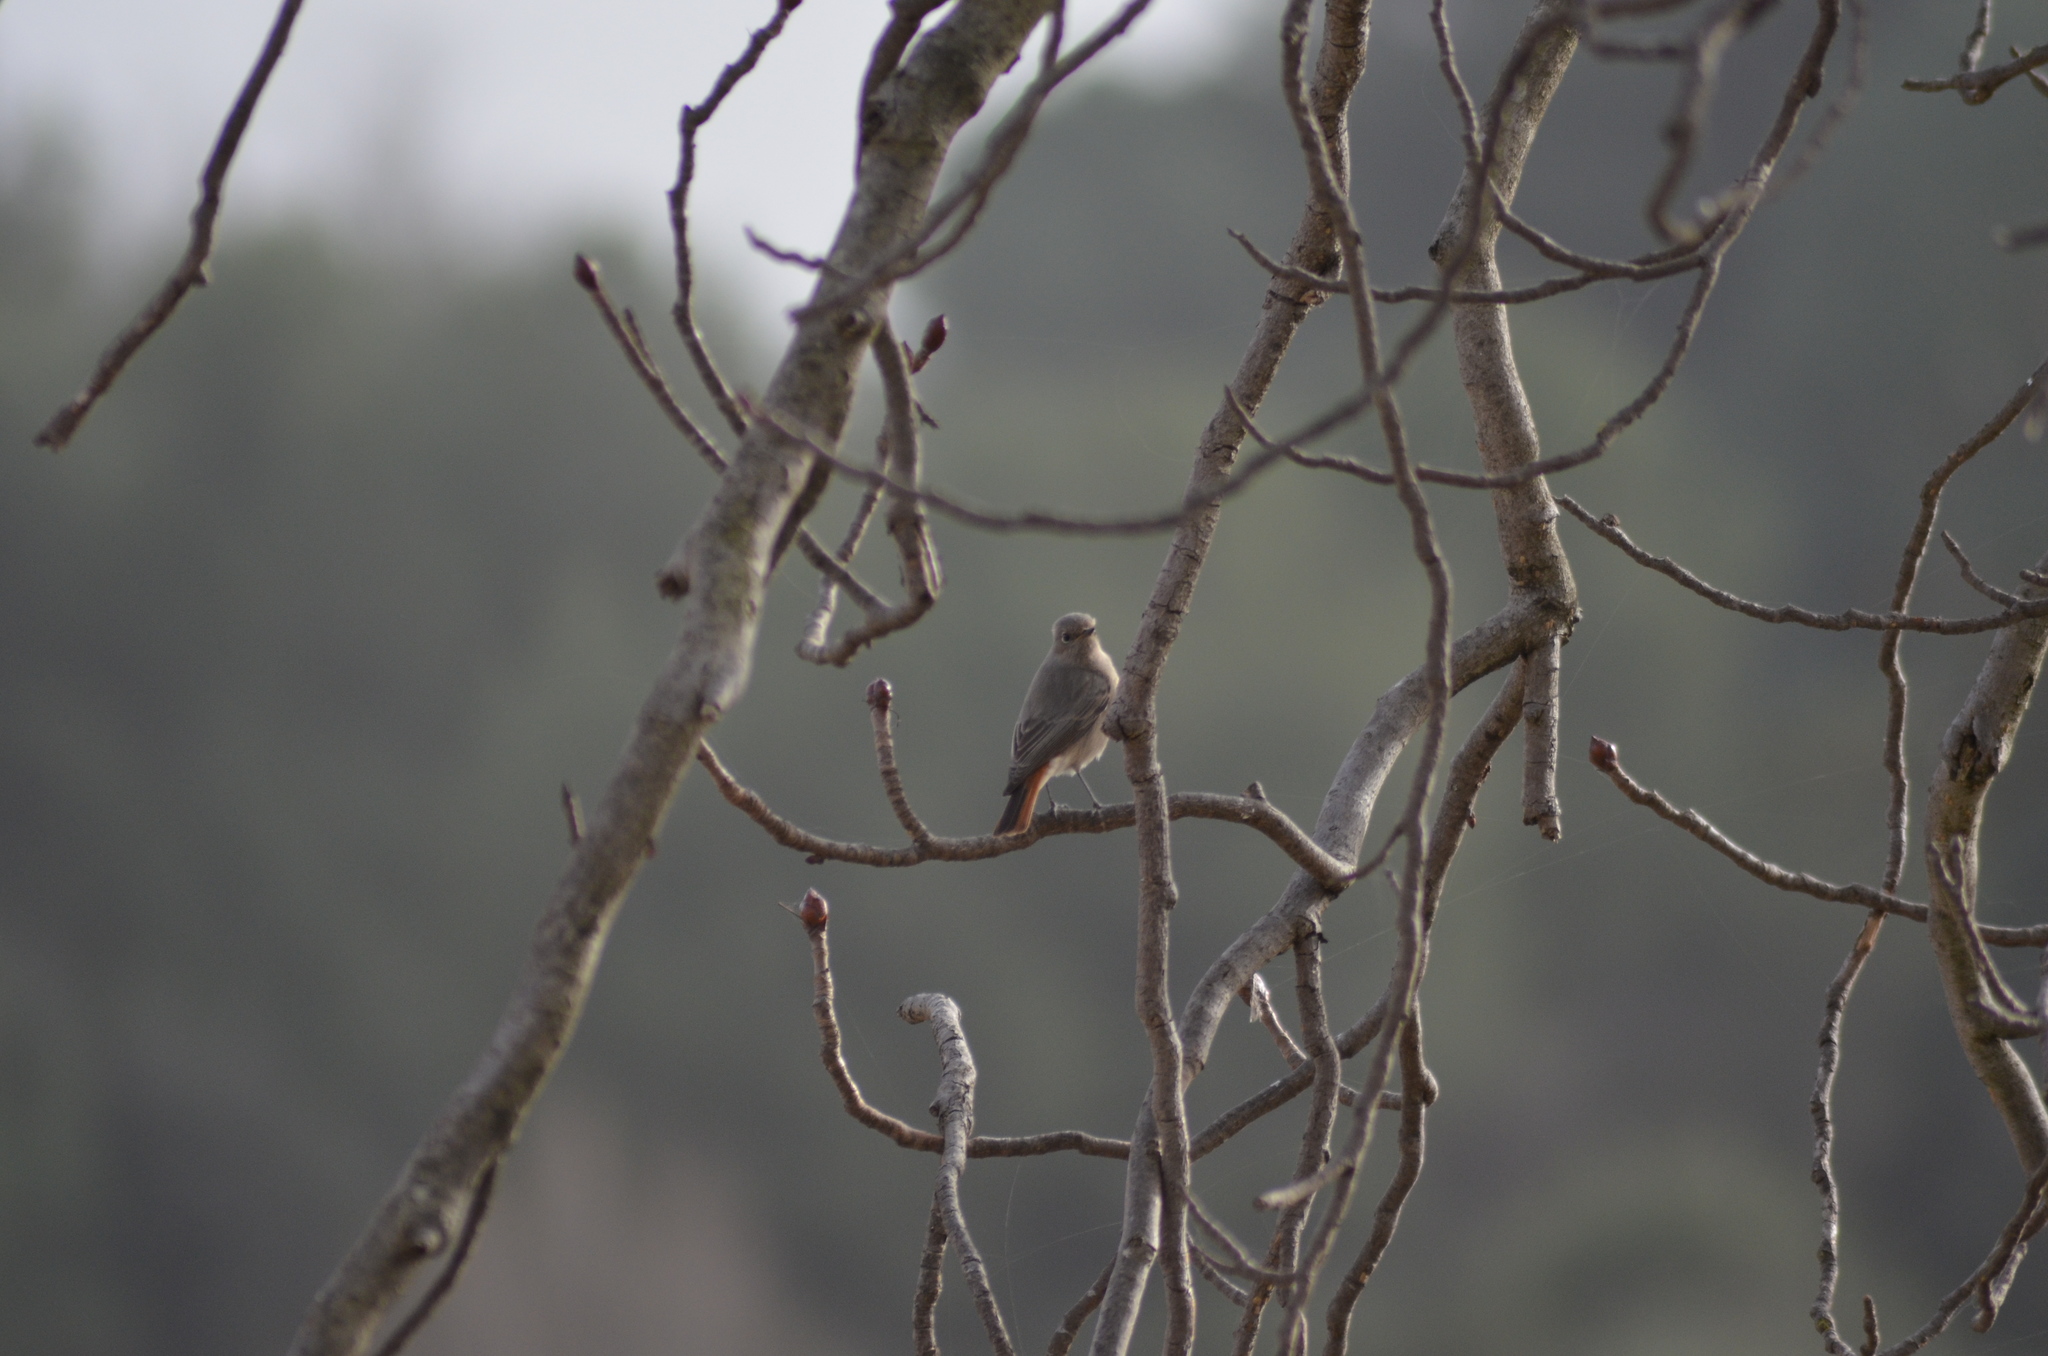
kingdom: Animalia
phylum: Chordata
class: Aves
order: Passeriformes
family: Muscicapidae
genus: Phoenicurus
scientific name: Phoenicurus ochruros
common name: Black redstart
